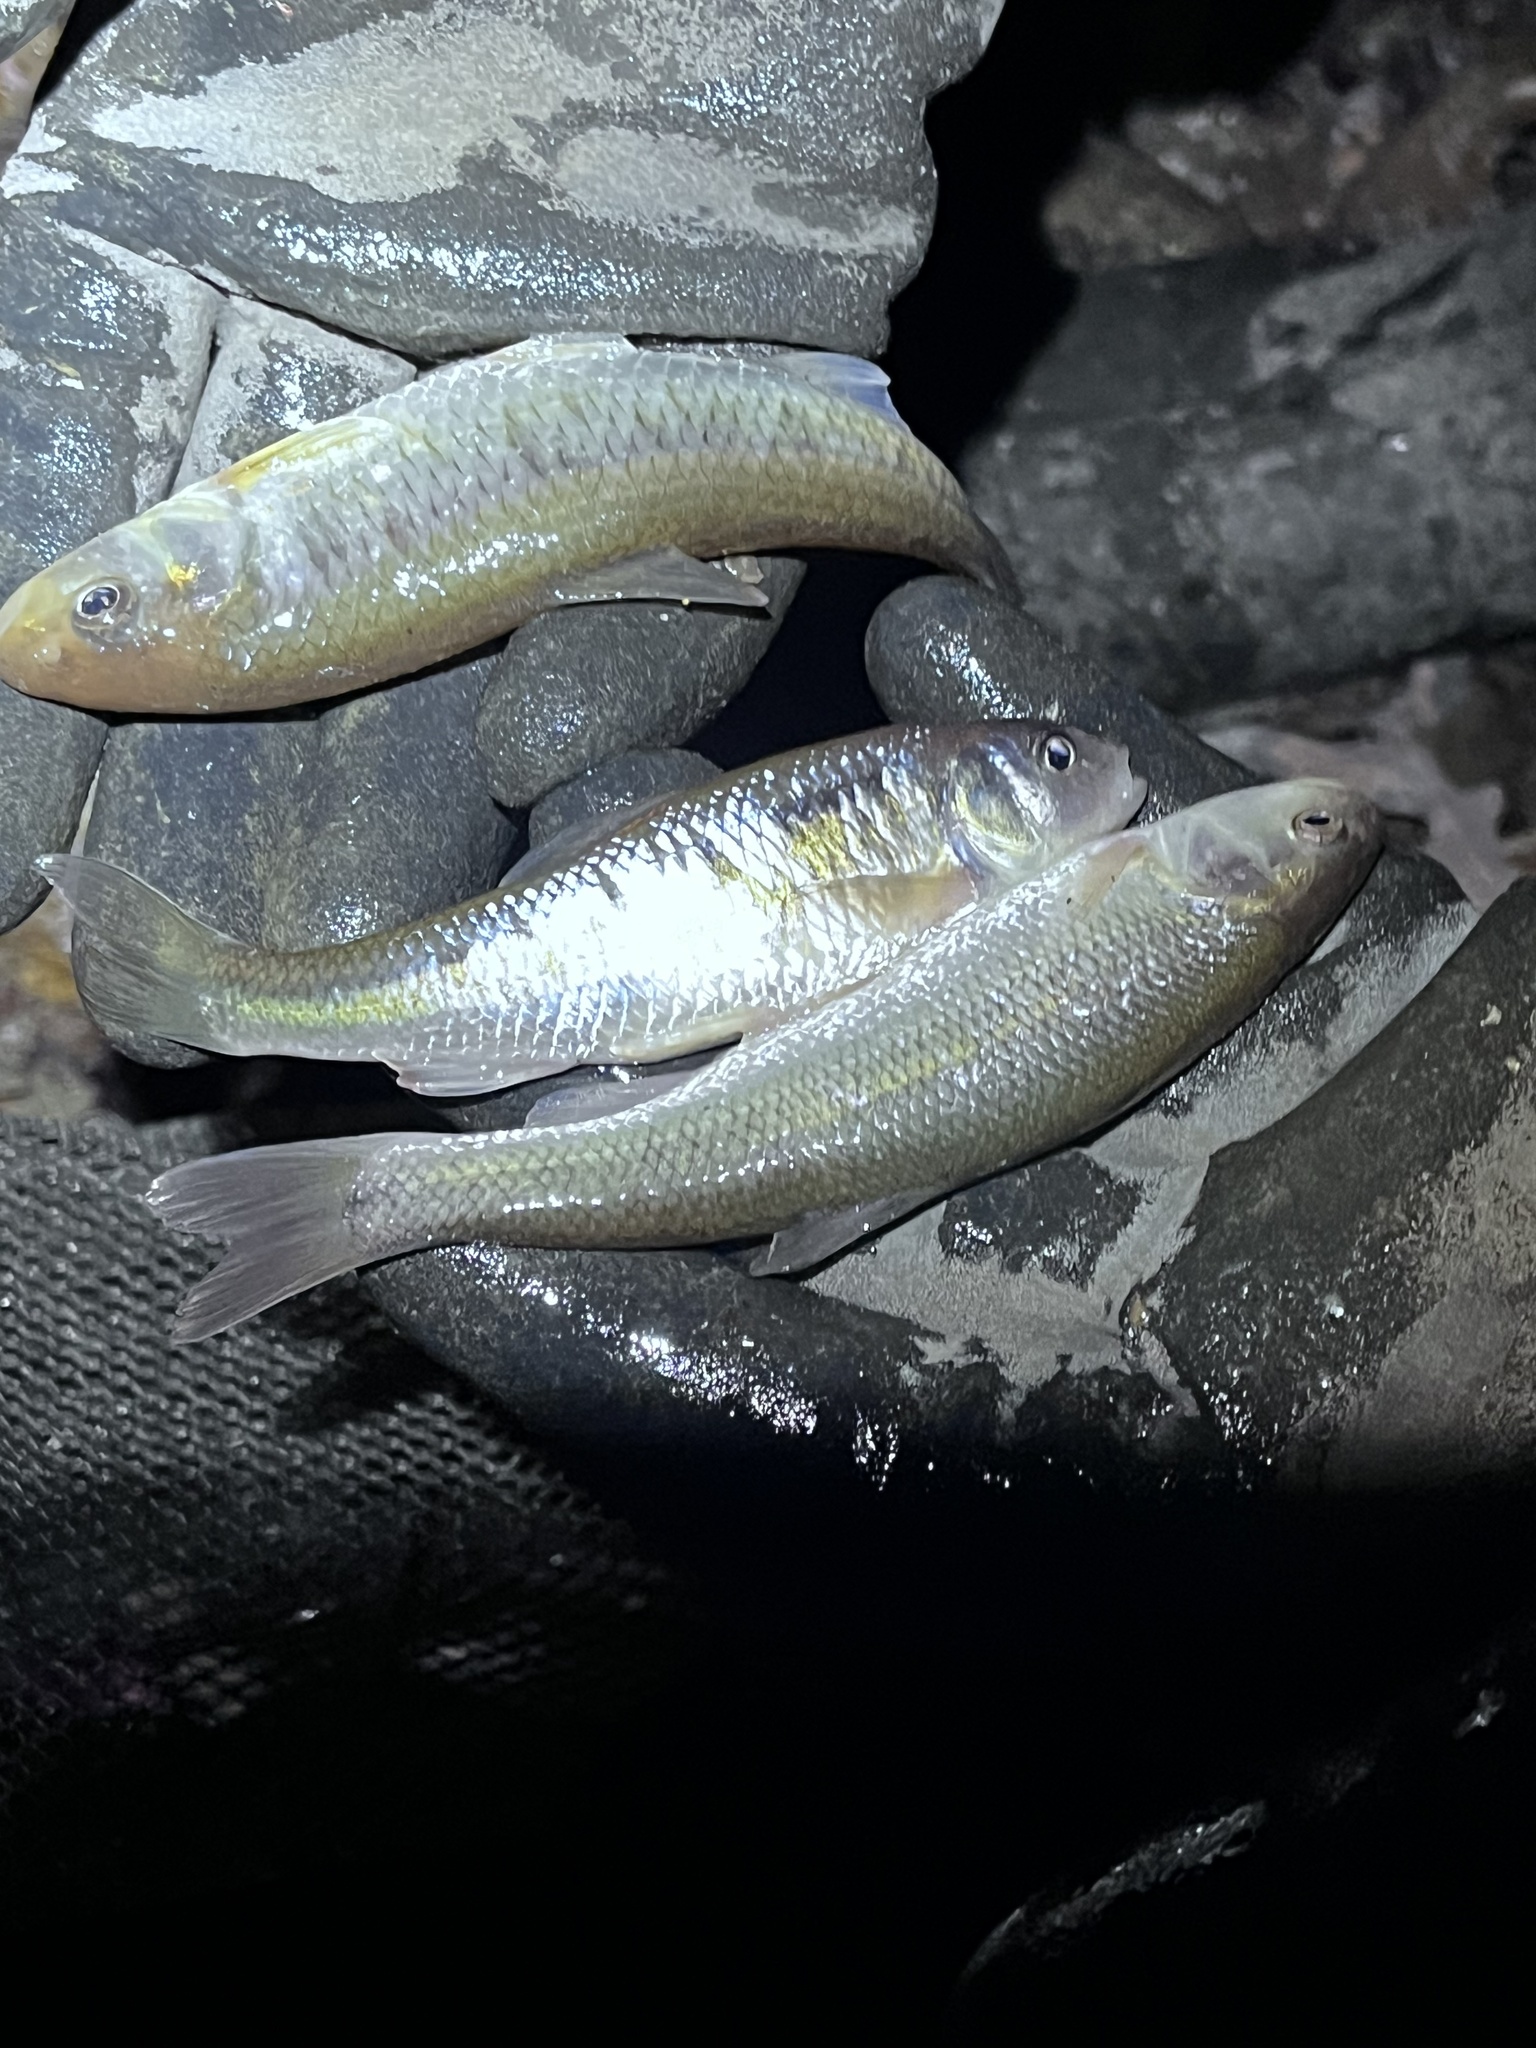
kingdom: Animalia
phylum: Chordata
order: Cypriniformes
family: Cyprinidae
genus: Luxilus
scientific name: Luxilus chrysocephalus
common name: Striped shiner
